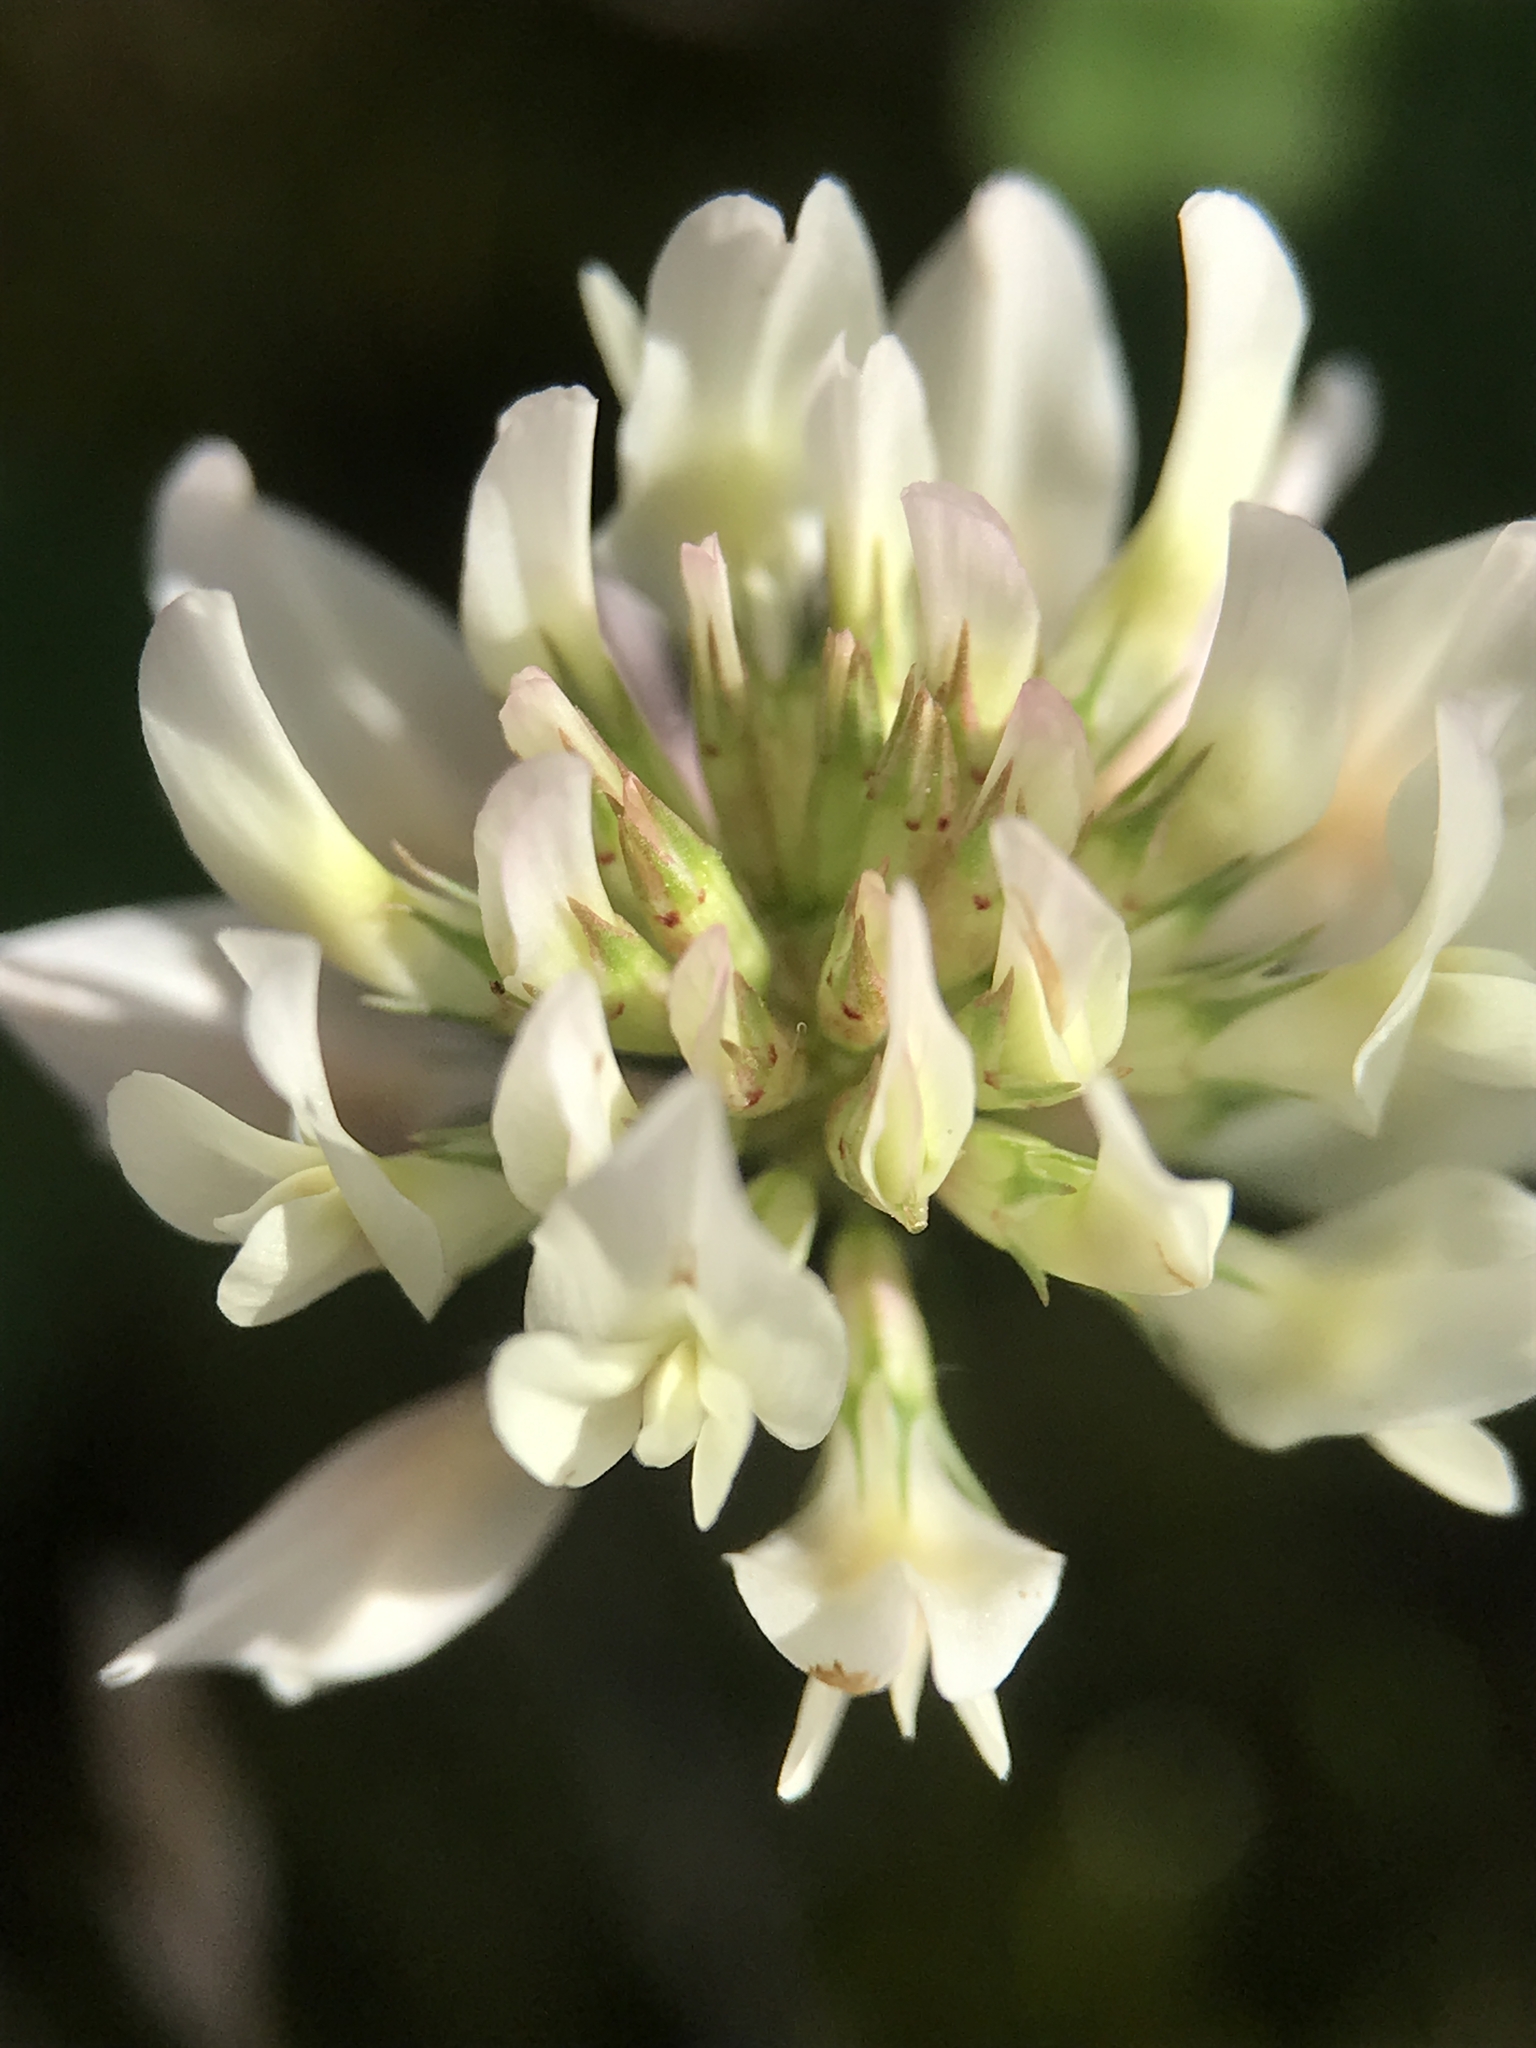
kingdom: Plantae
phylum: Tracheophyta
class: Magnoliopsida
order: Fabales
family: Fabaceae
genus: Trifolium
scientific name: Trifolium repens
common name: White clover
